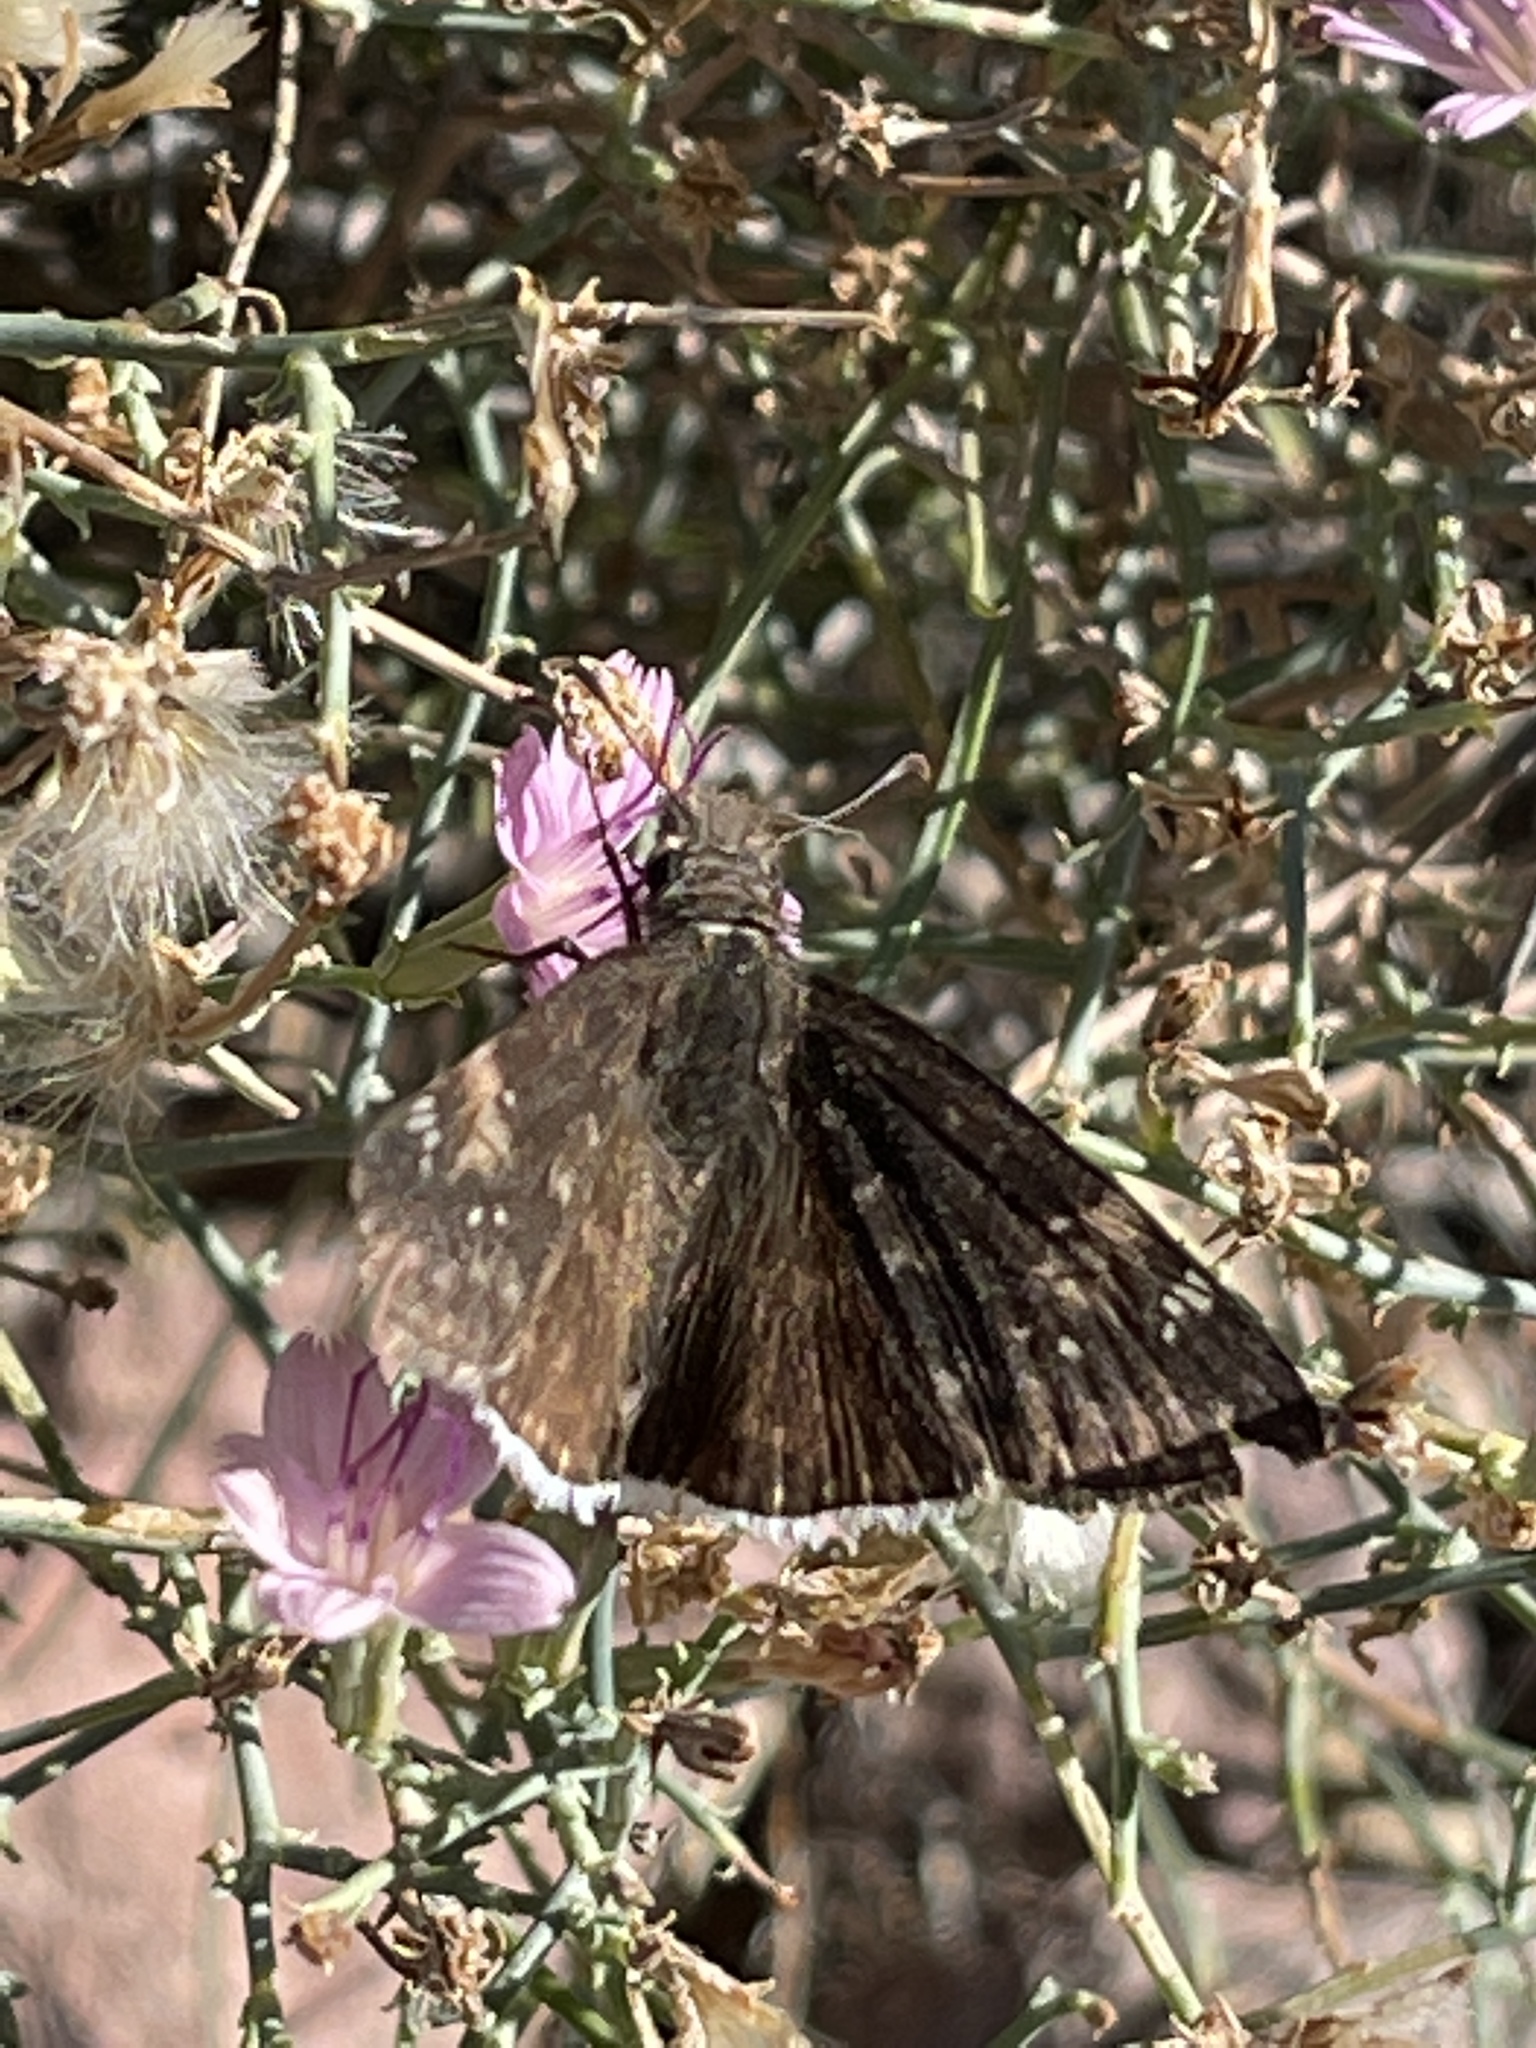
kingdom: Animalia
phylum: Arthropoda
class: Insecta
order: Lepidoptera
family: Hesperiidae
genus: Erynnis
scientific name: Erynnis funeralis
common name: Funereal duskywing
